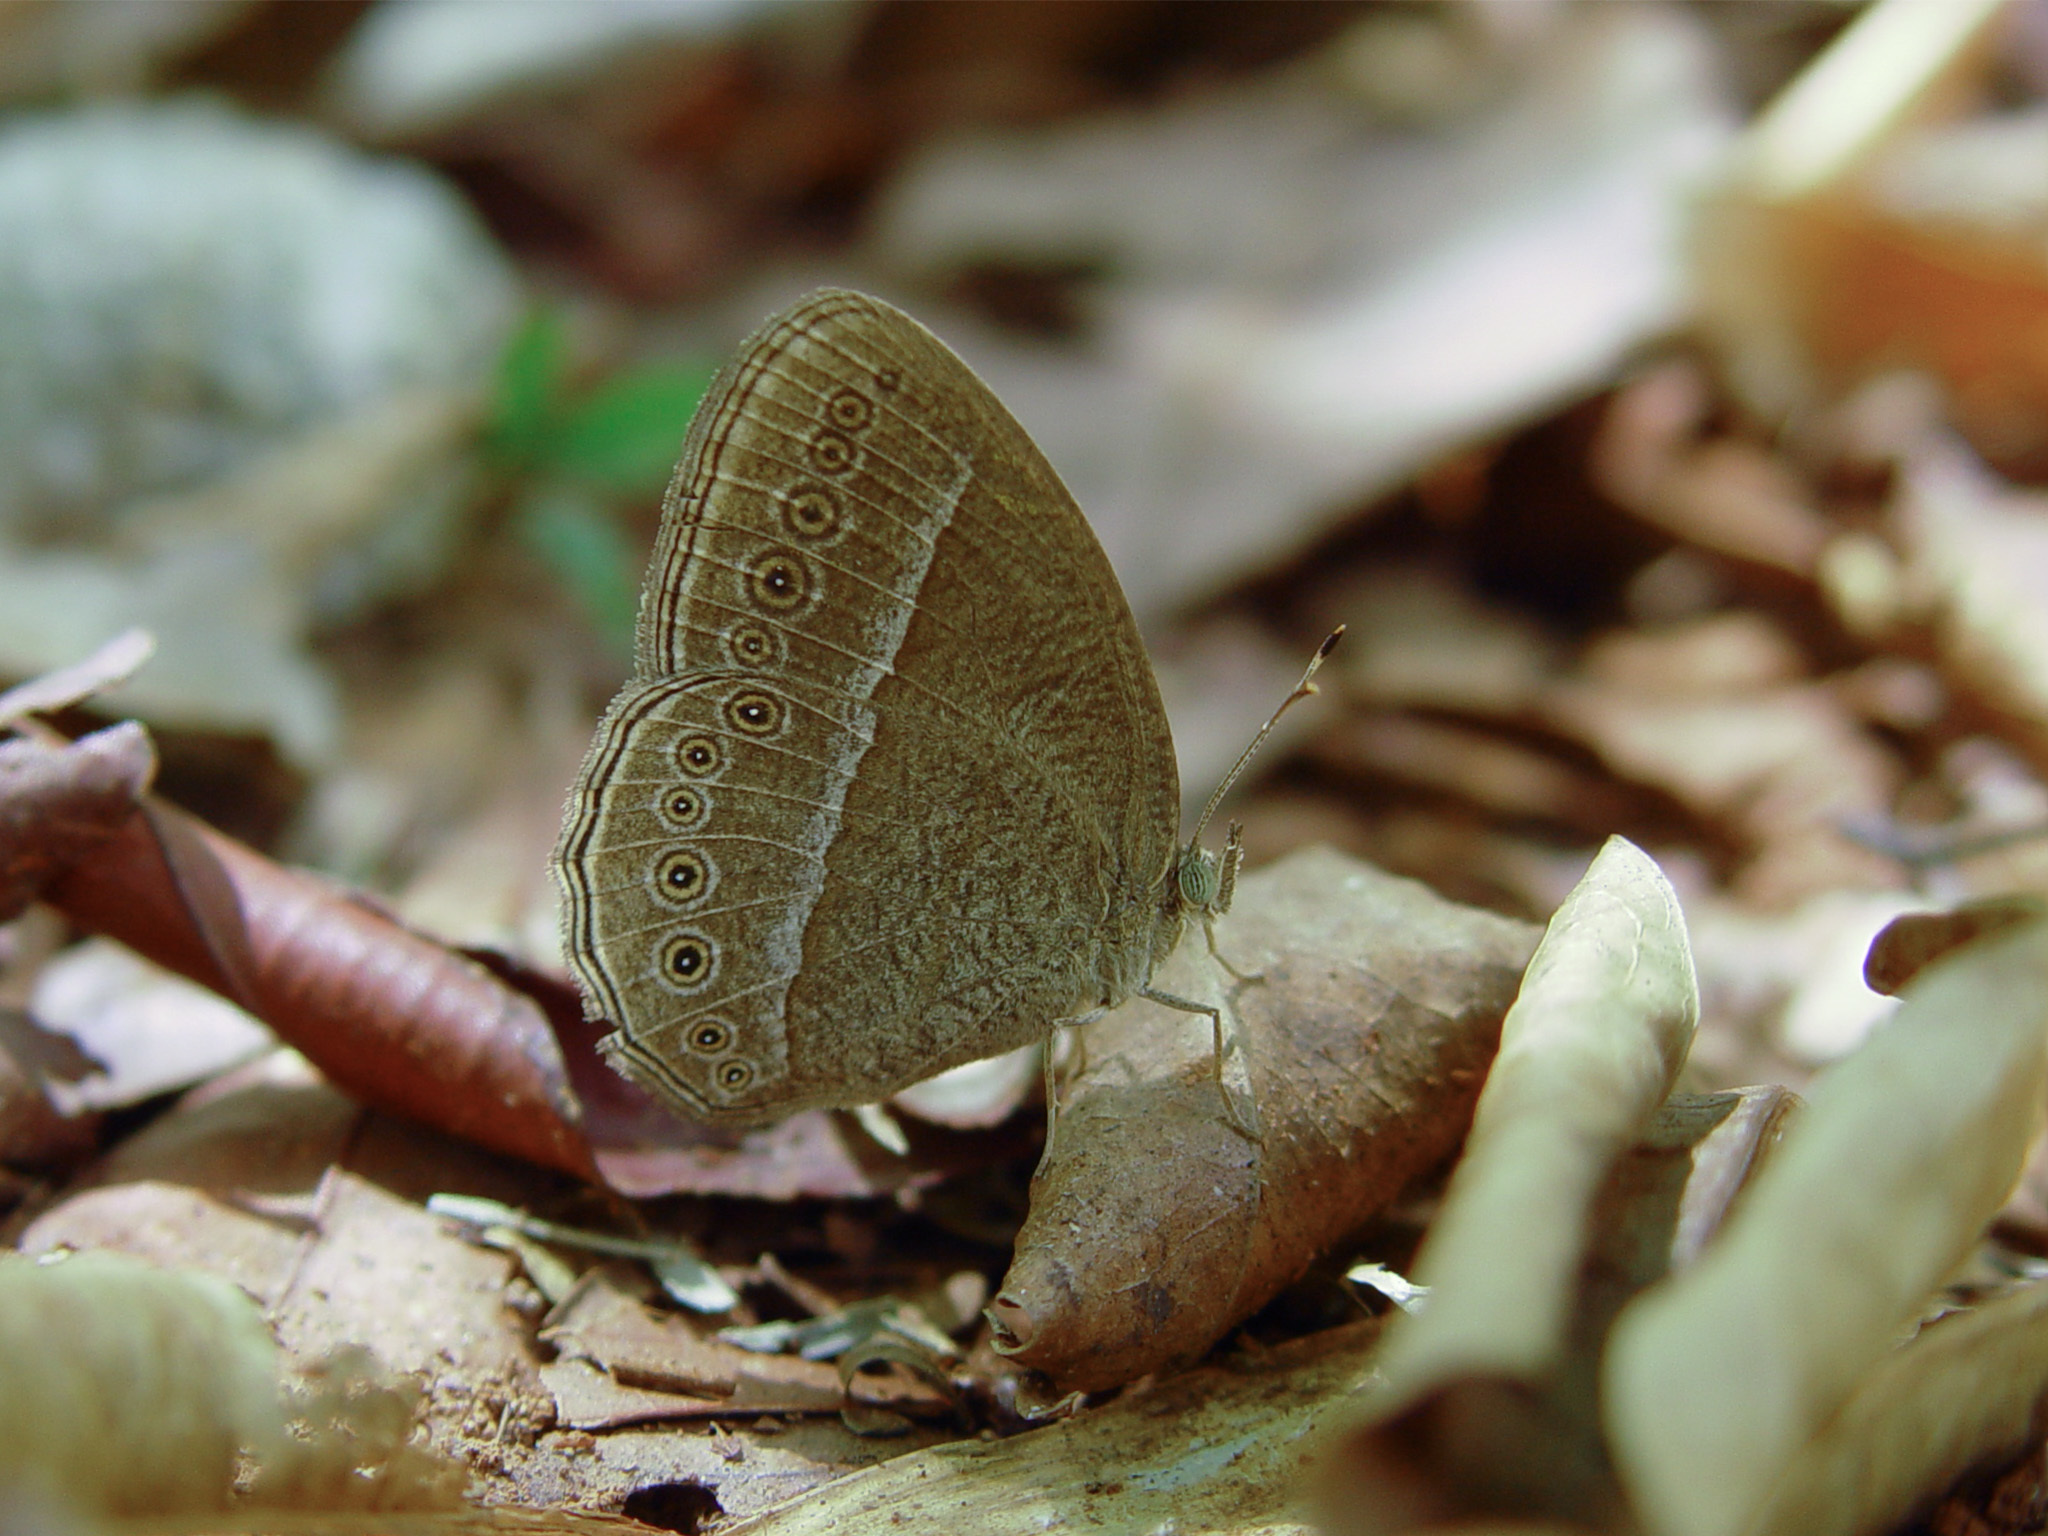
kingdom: Animalia
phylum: Arthropoda
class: Insecta
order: Lepidoptera
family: Nymphalidae
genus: Mycalesis
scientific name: Mycalesis Telinga janardana
